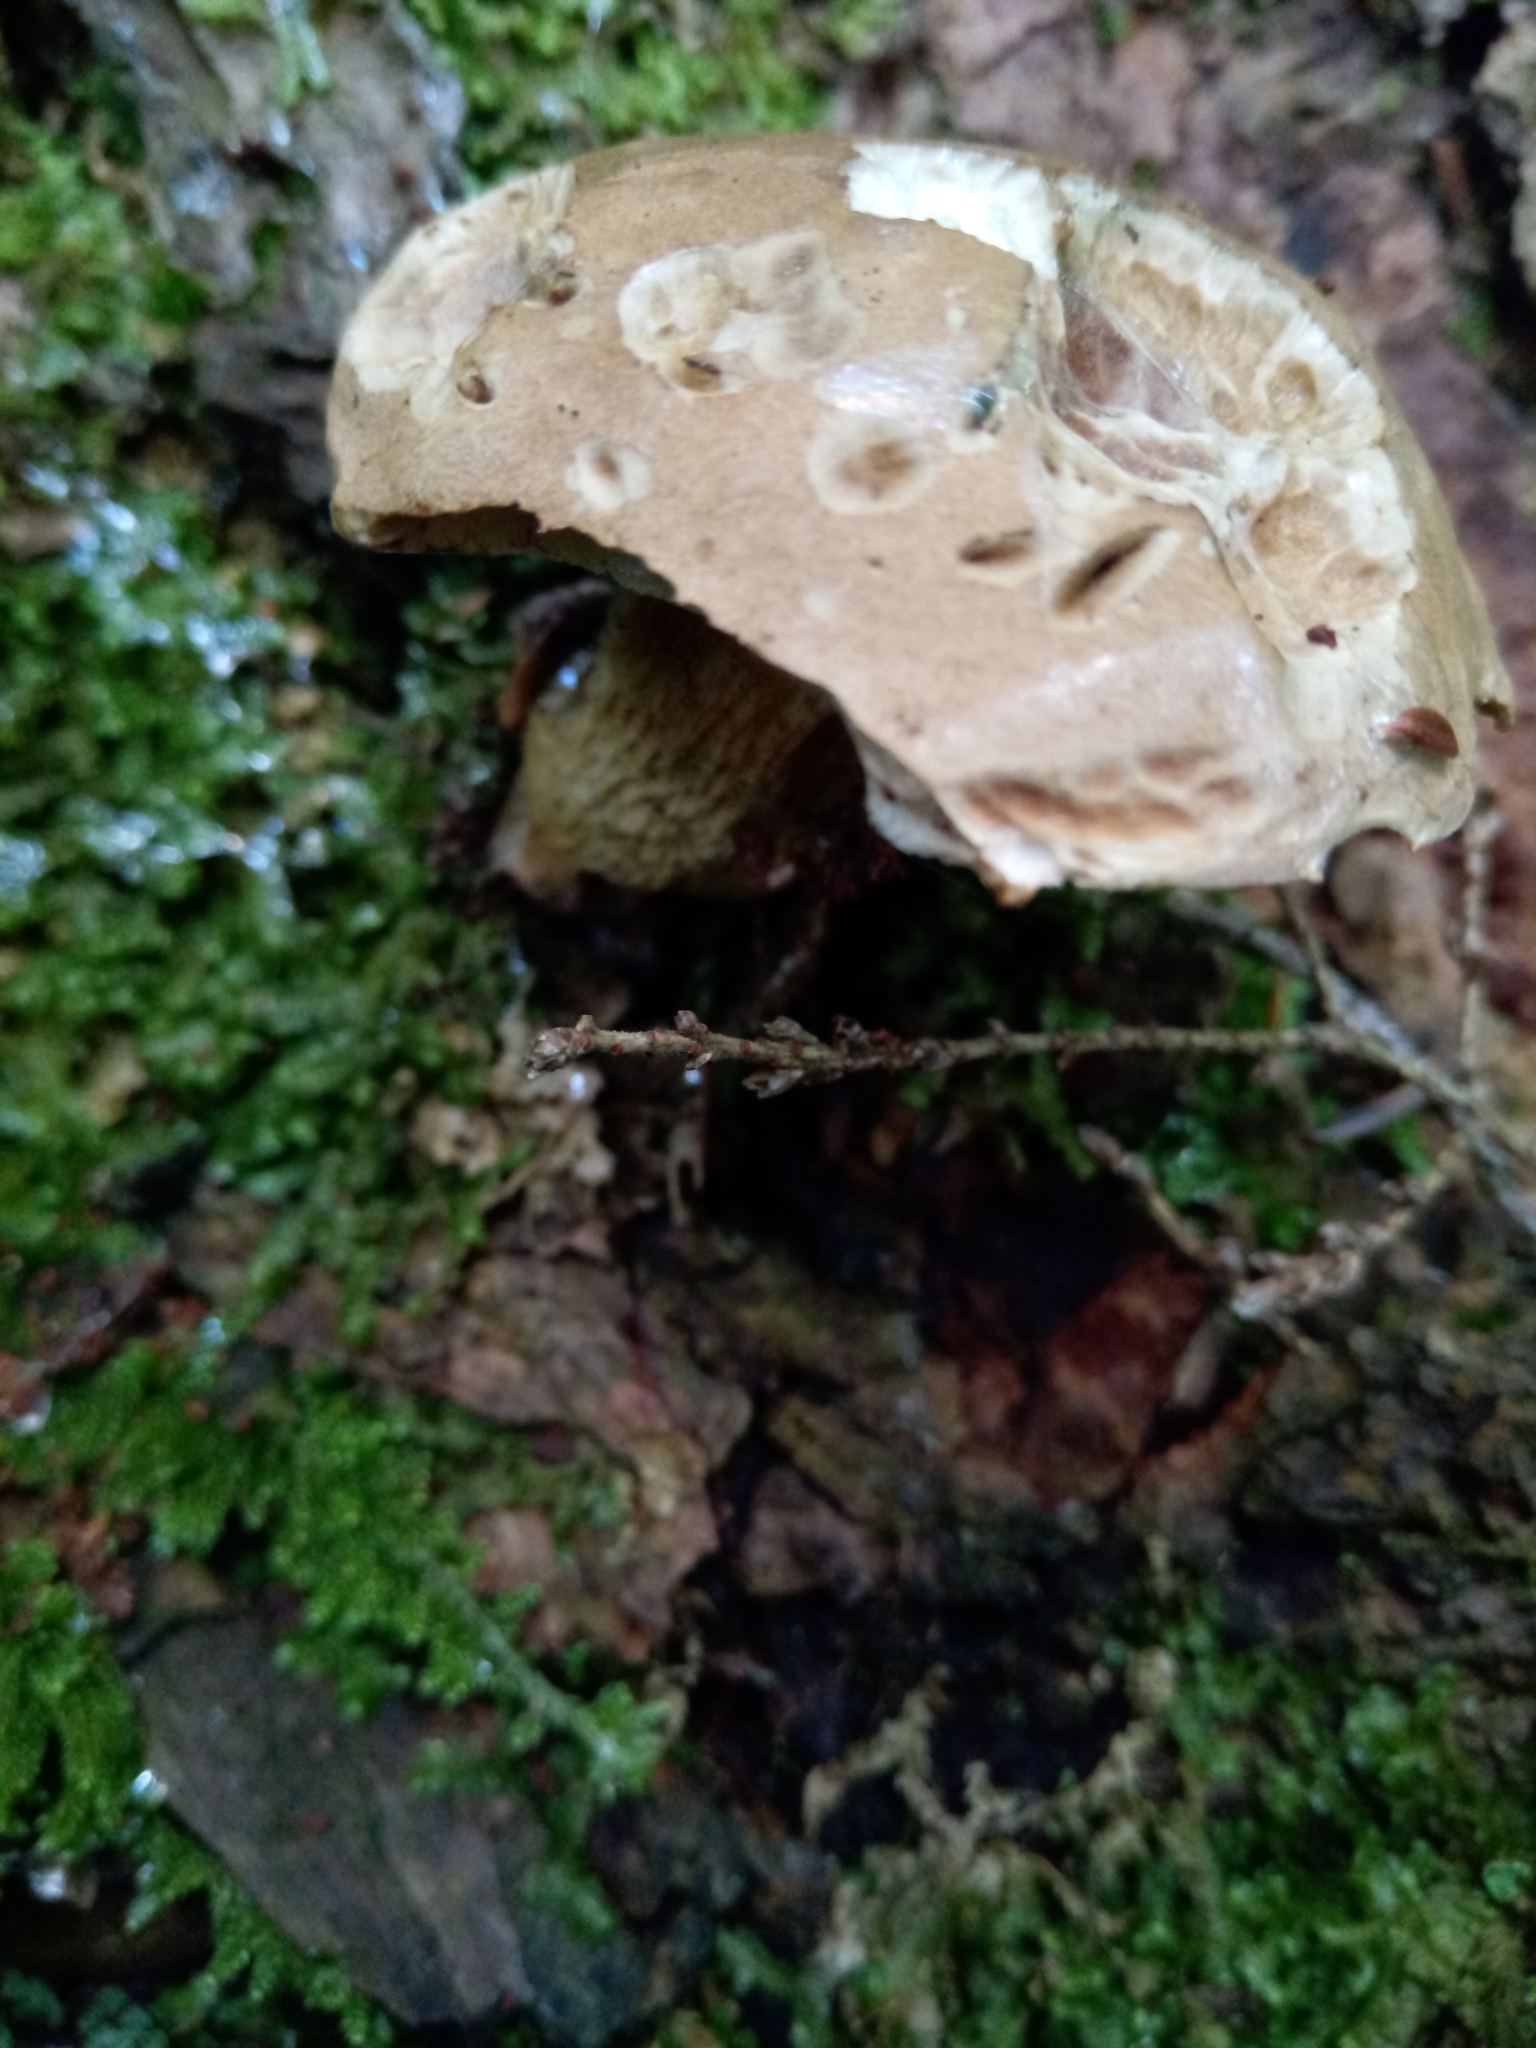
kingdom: Fungi
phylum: Basidiomycota
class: Agaricomycetes
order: Boletales
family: Boletaceae
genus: Tylopilus
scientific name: Tylopilus felleus
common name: Bitter bolete
